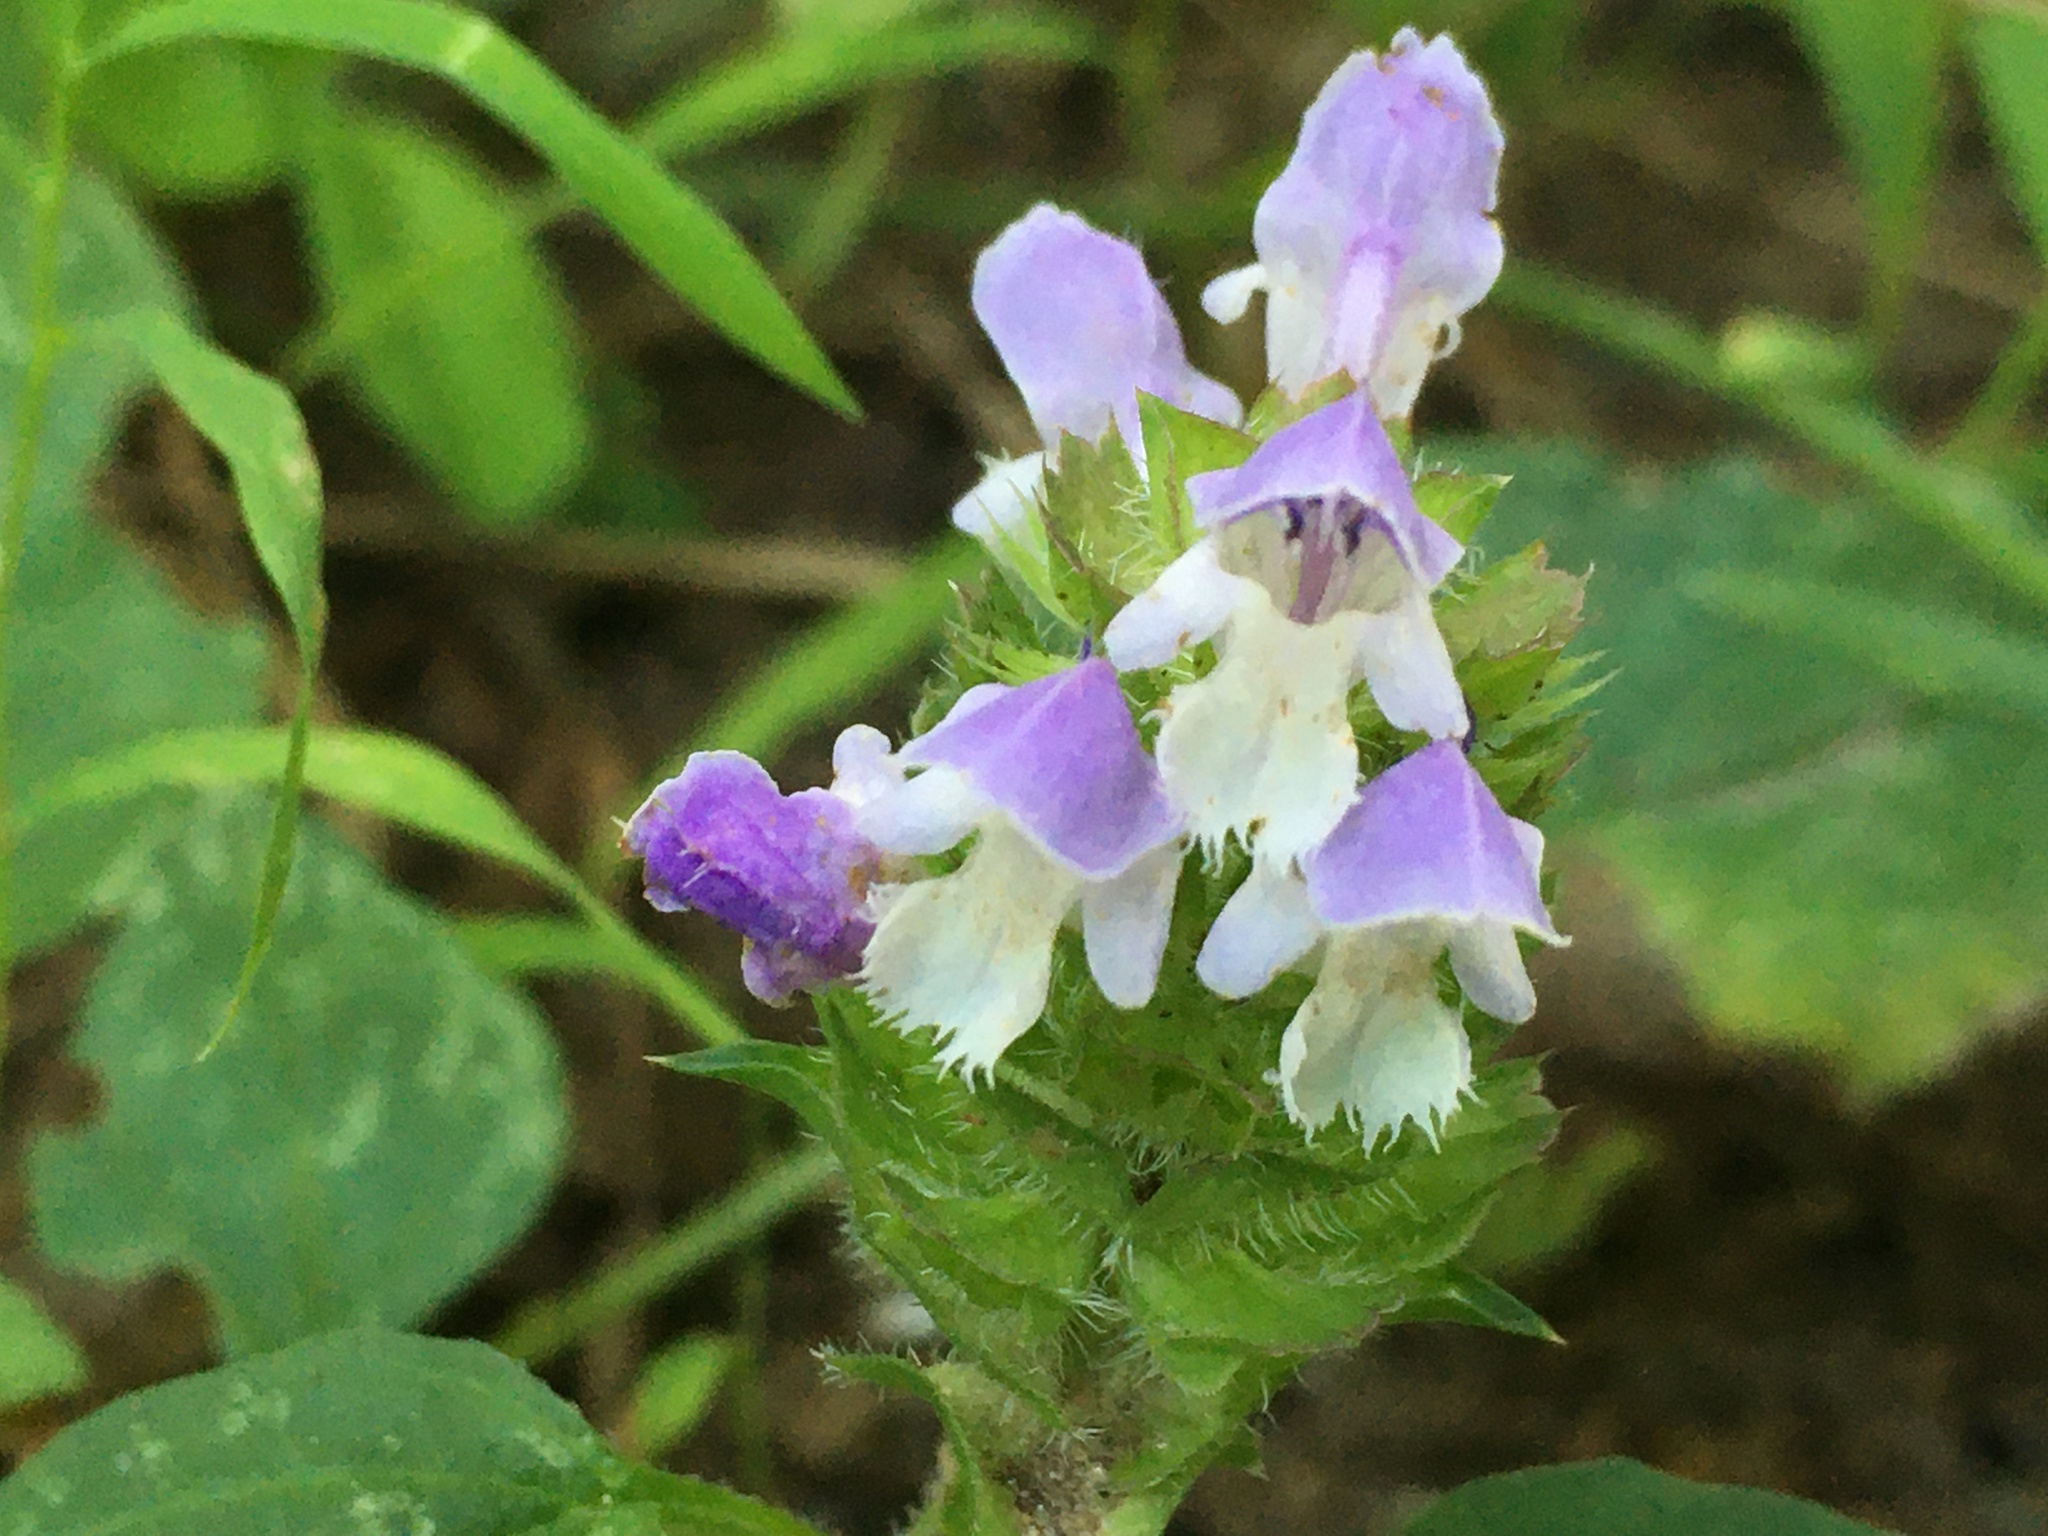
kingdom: Plantae
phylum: Tracheophyta
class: Magnoliopsida
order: Lamiales
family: Lamiaceae
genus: Prunella
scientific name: Prunella vulgaris
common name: Heal-all
